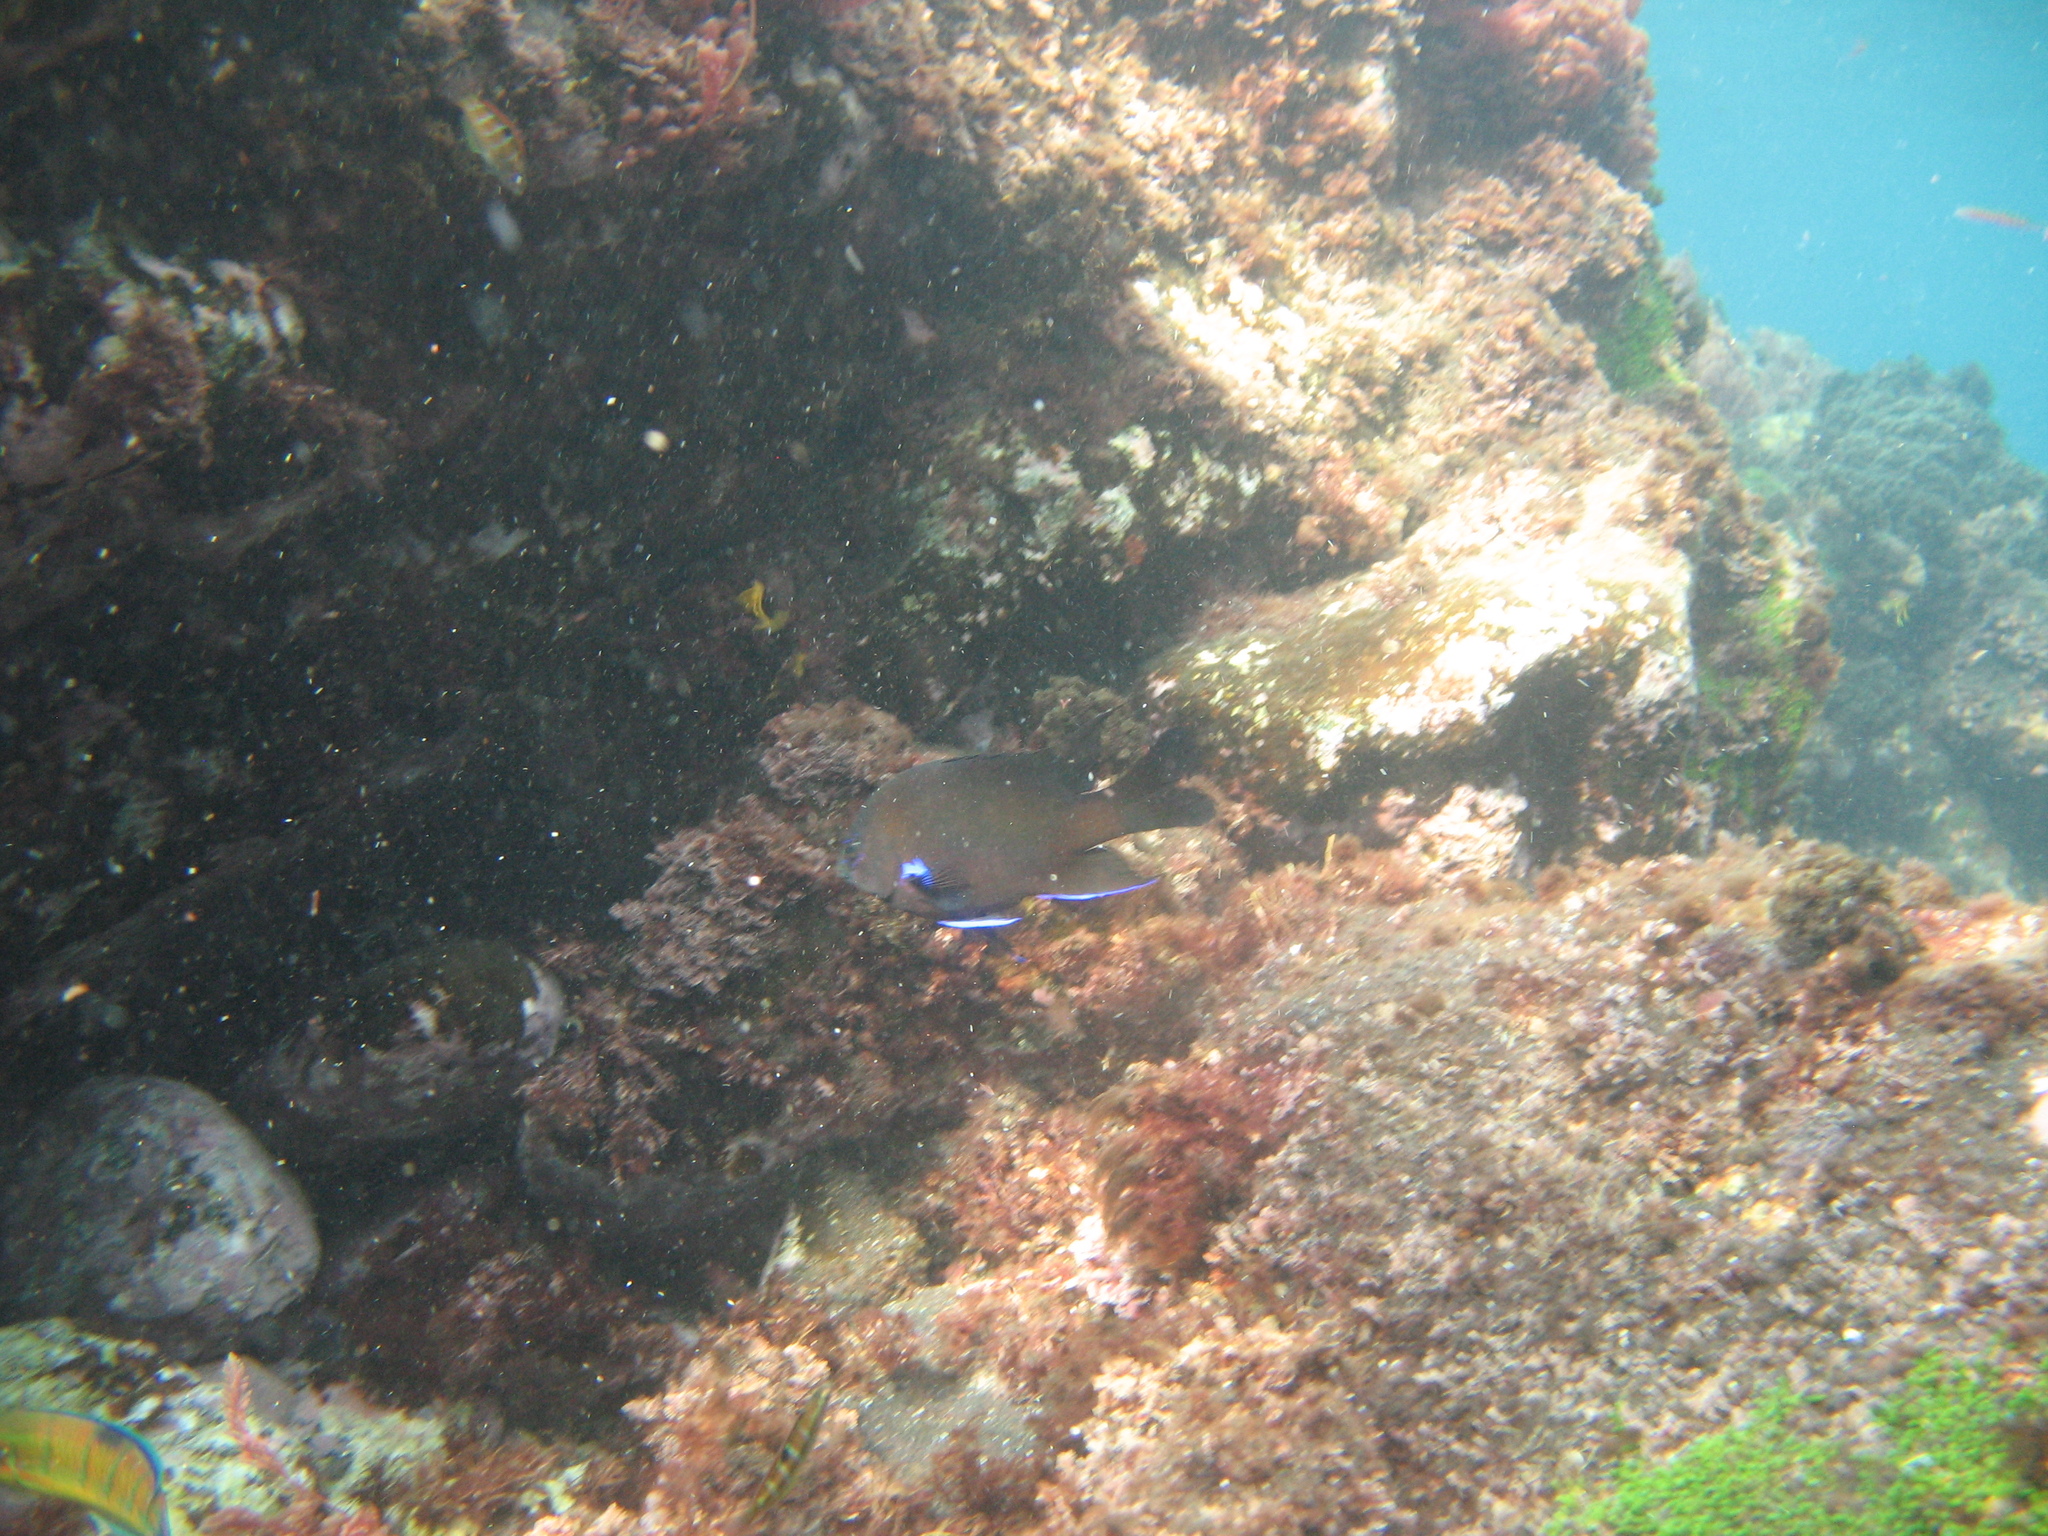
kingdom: Animalia
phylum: Chordata
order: Perciformes
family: Pomacentridae
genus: Similiparma
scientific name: Similiparma lurida
